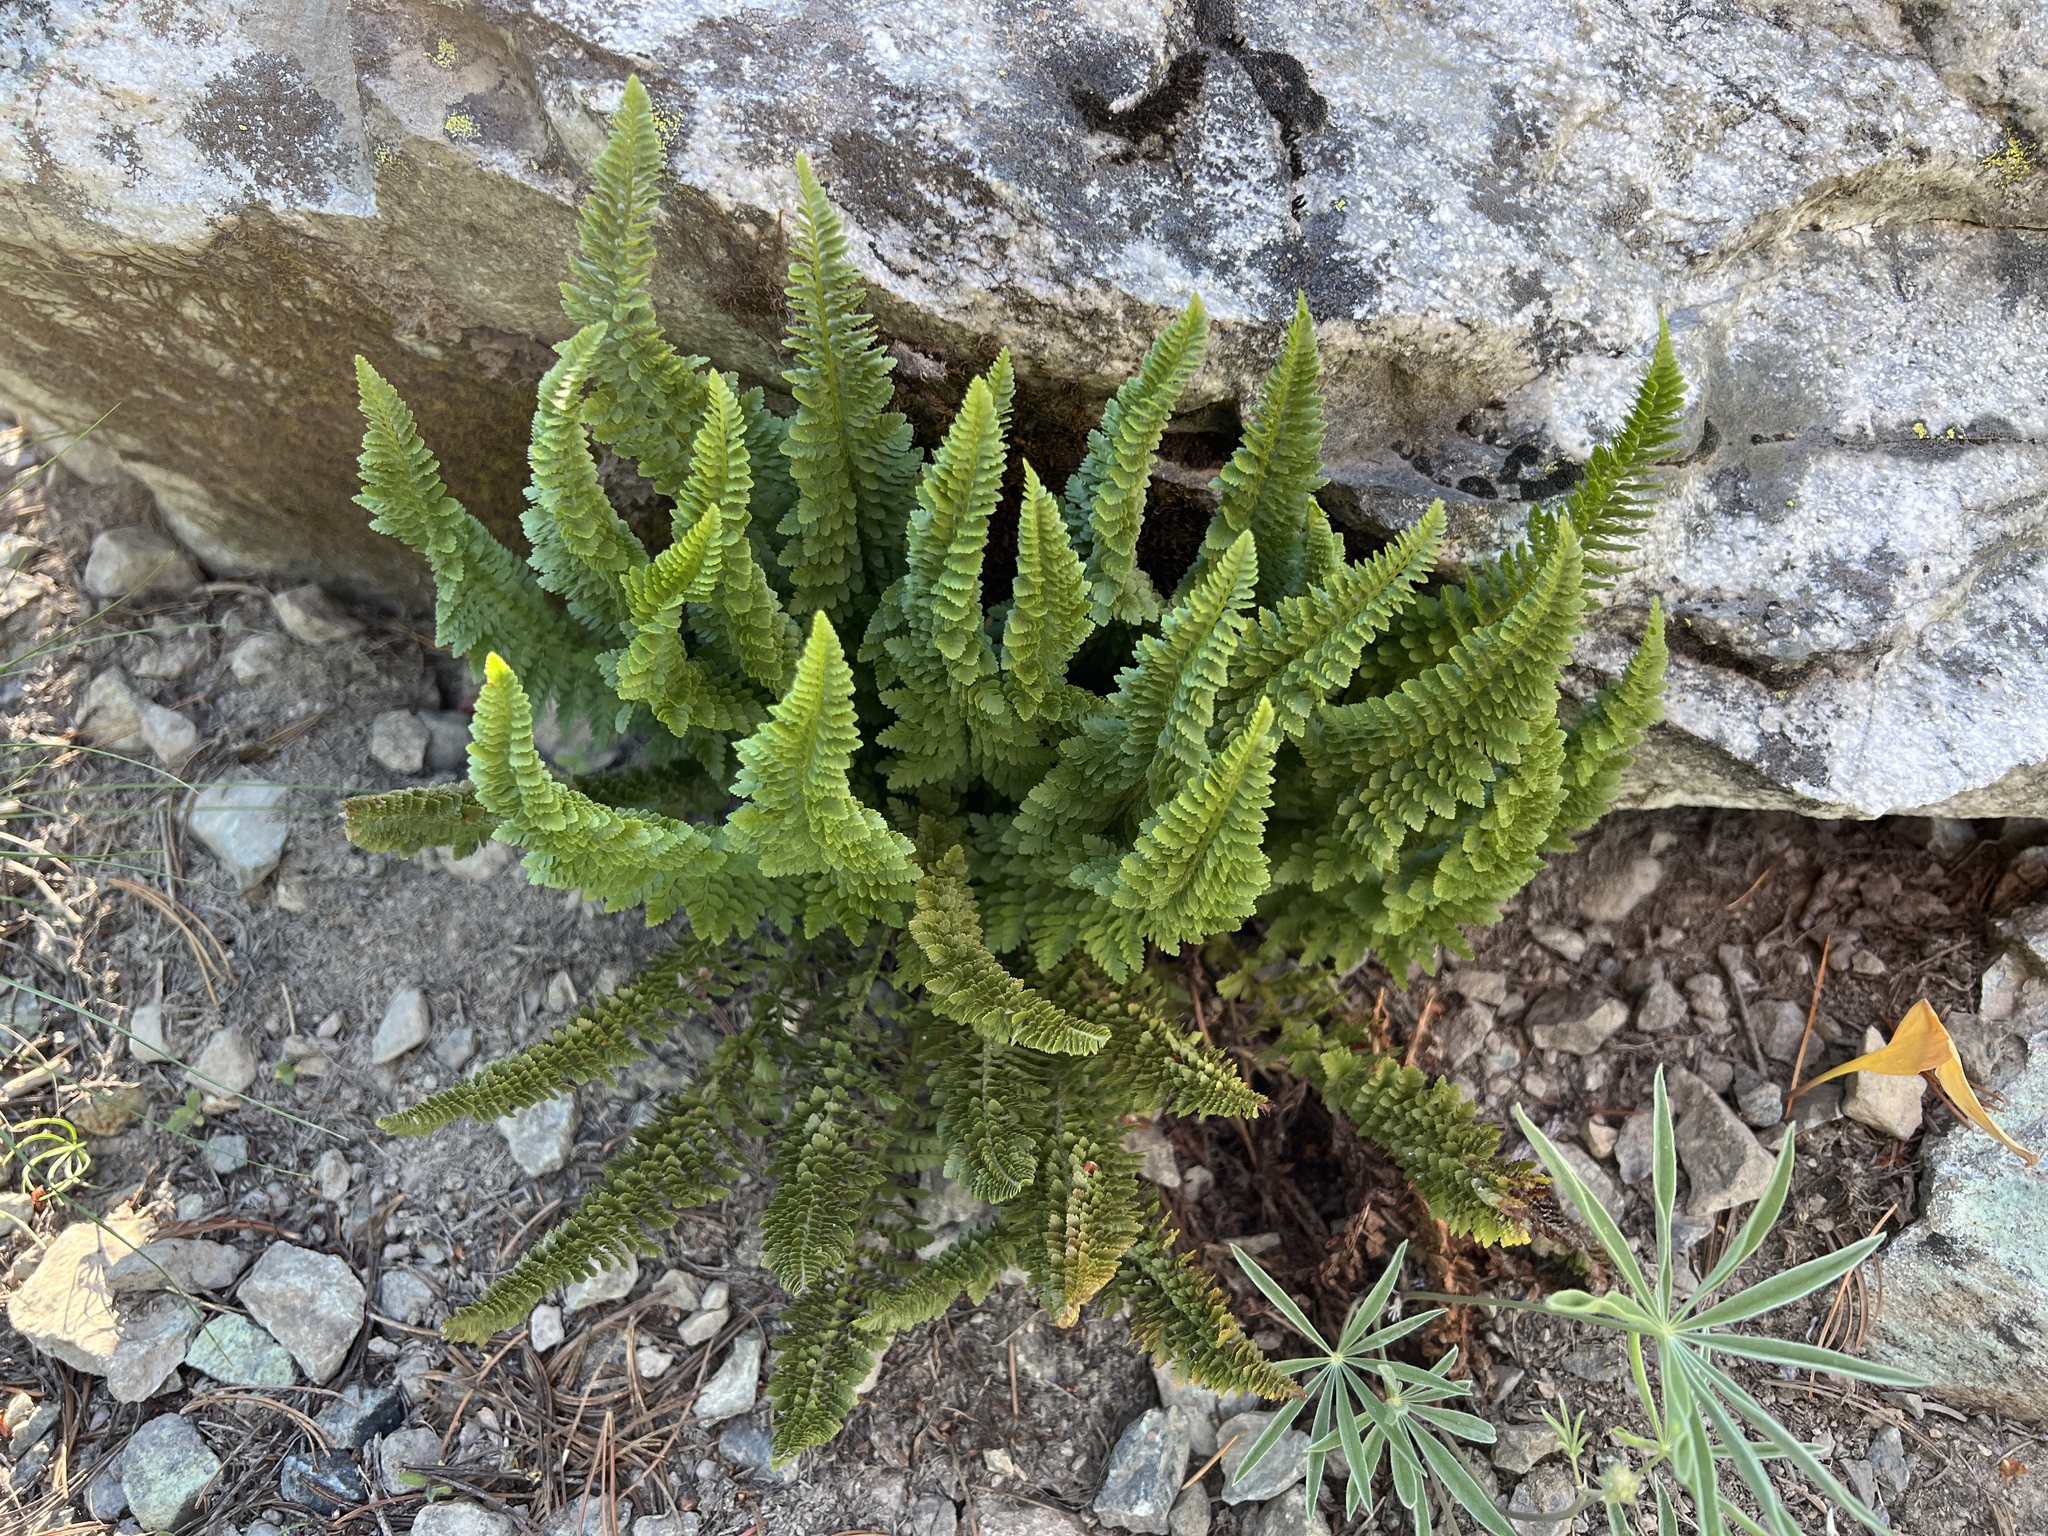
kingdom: Plantae
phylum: Tracheophyta
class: Polypodiopsida
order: Polypodiales
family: Dryopteridaceae
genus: Polystichum
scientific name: Polystichum lemmonii
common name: Lemmon's holly fern
